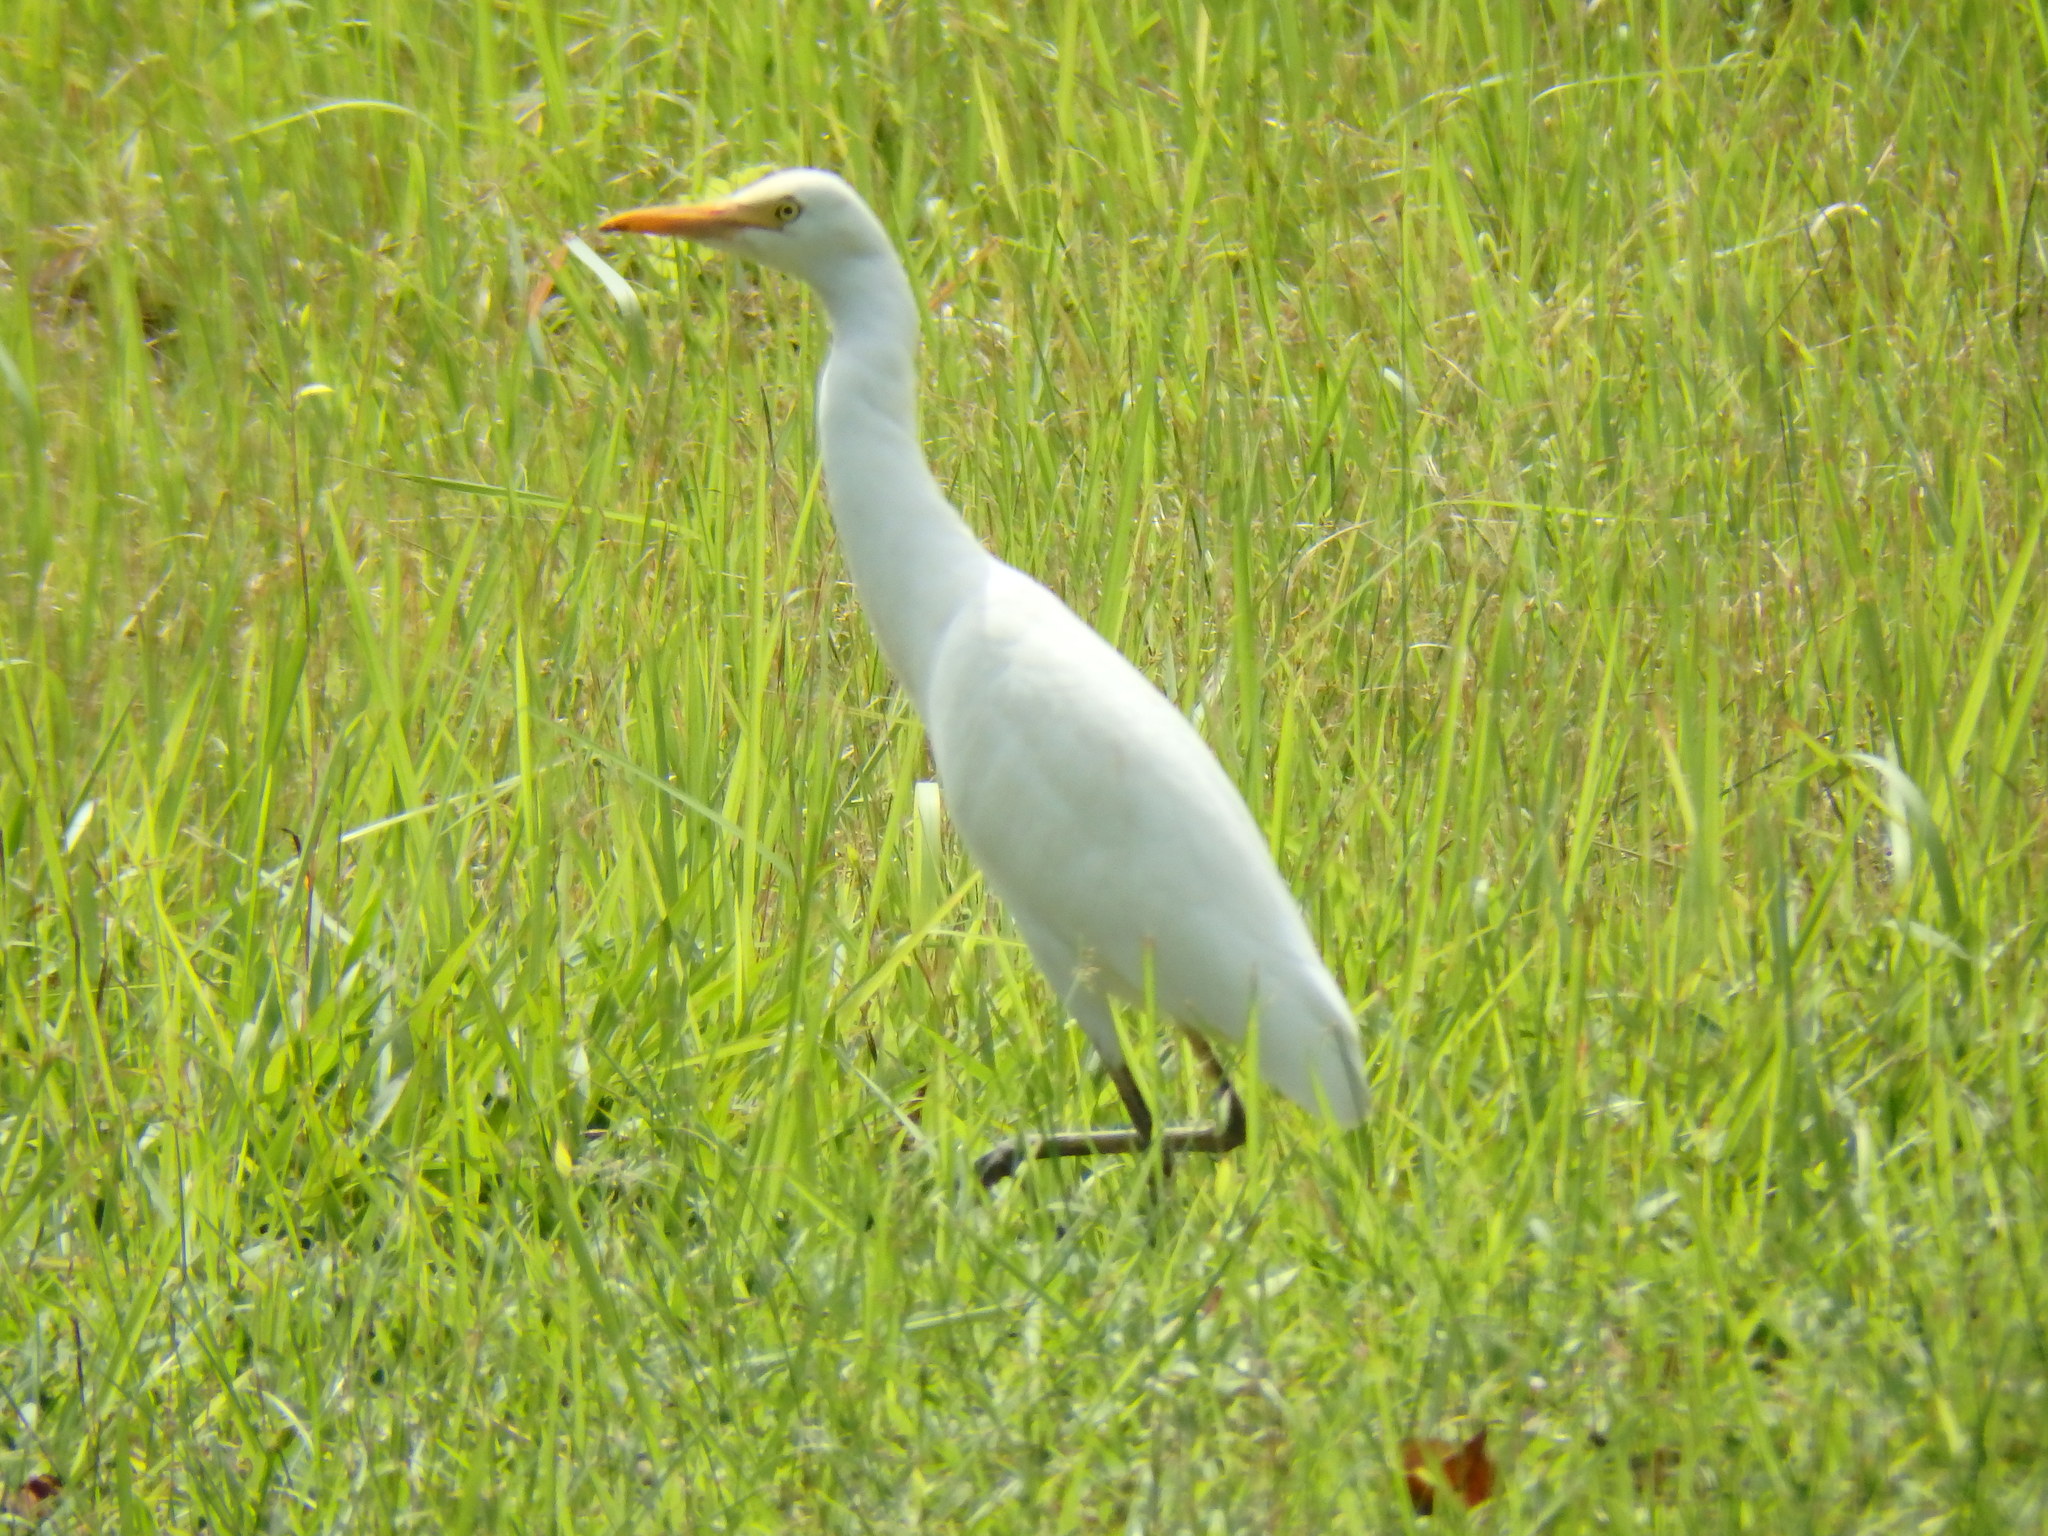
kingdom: Animalia
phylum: Chordata
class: Aves
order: Pelecaniformes
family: Ardeidae
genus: Bubulcus
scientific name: Bubulcus coromandus
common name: Eastern cattle egret
